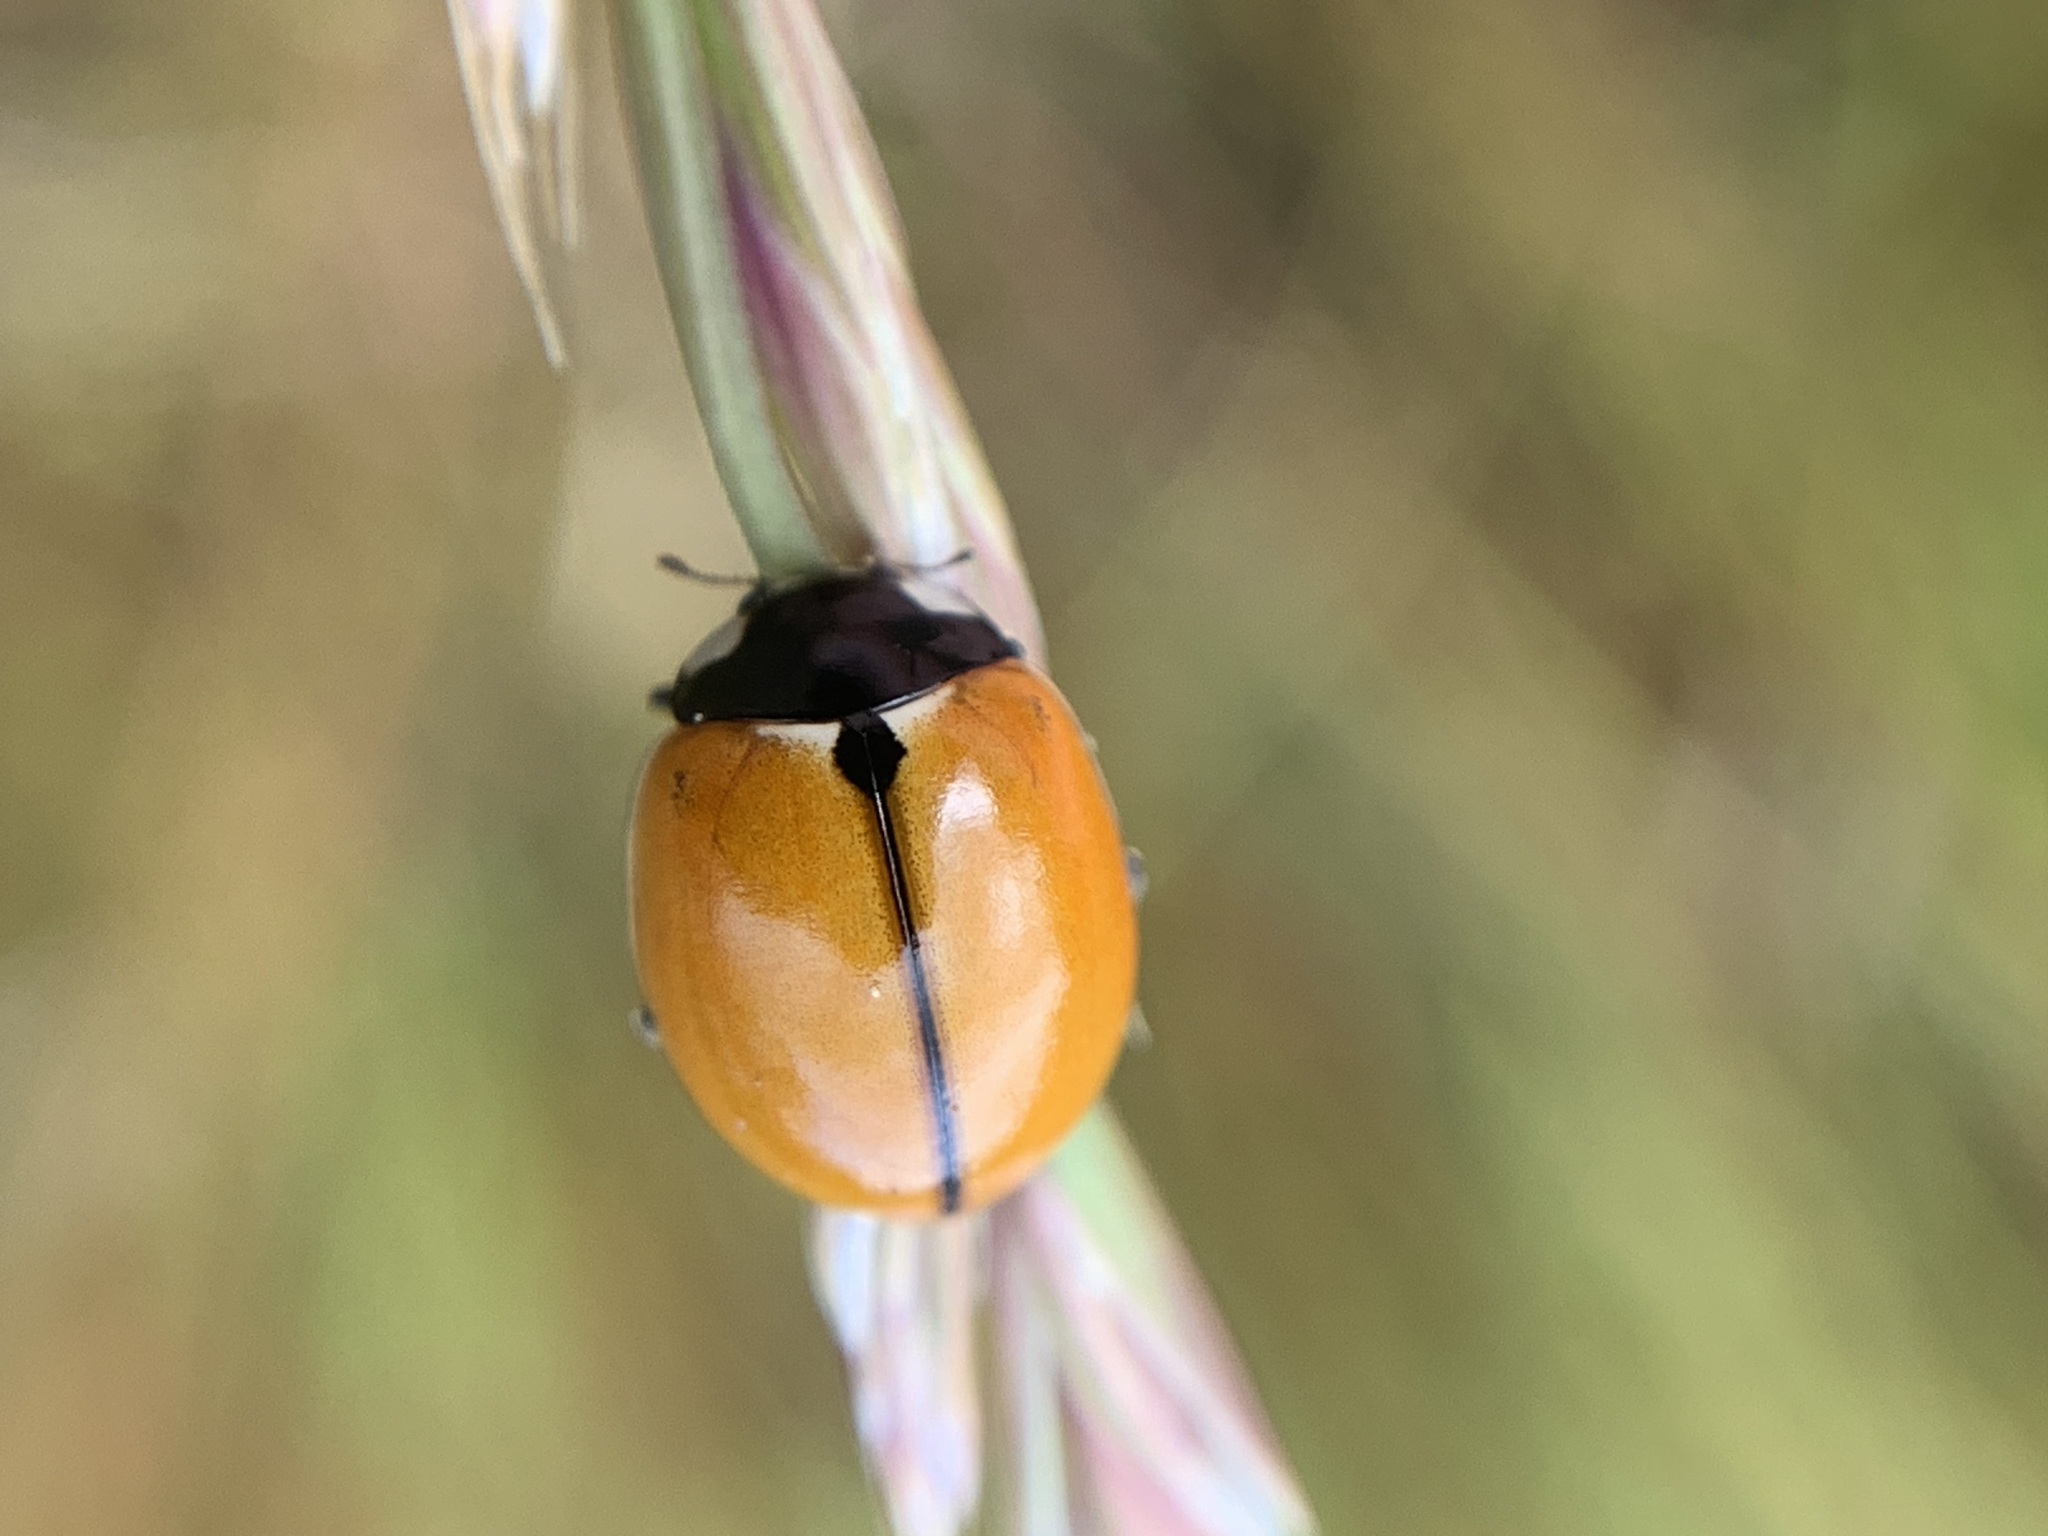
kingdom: Animalia
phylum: Arthropoda
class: Insecta
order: Coleoptera
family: Coccinellidae
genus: Coccinella
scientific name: Coccinella californica
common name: Lady beetle
